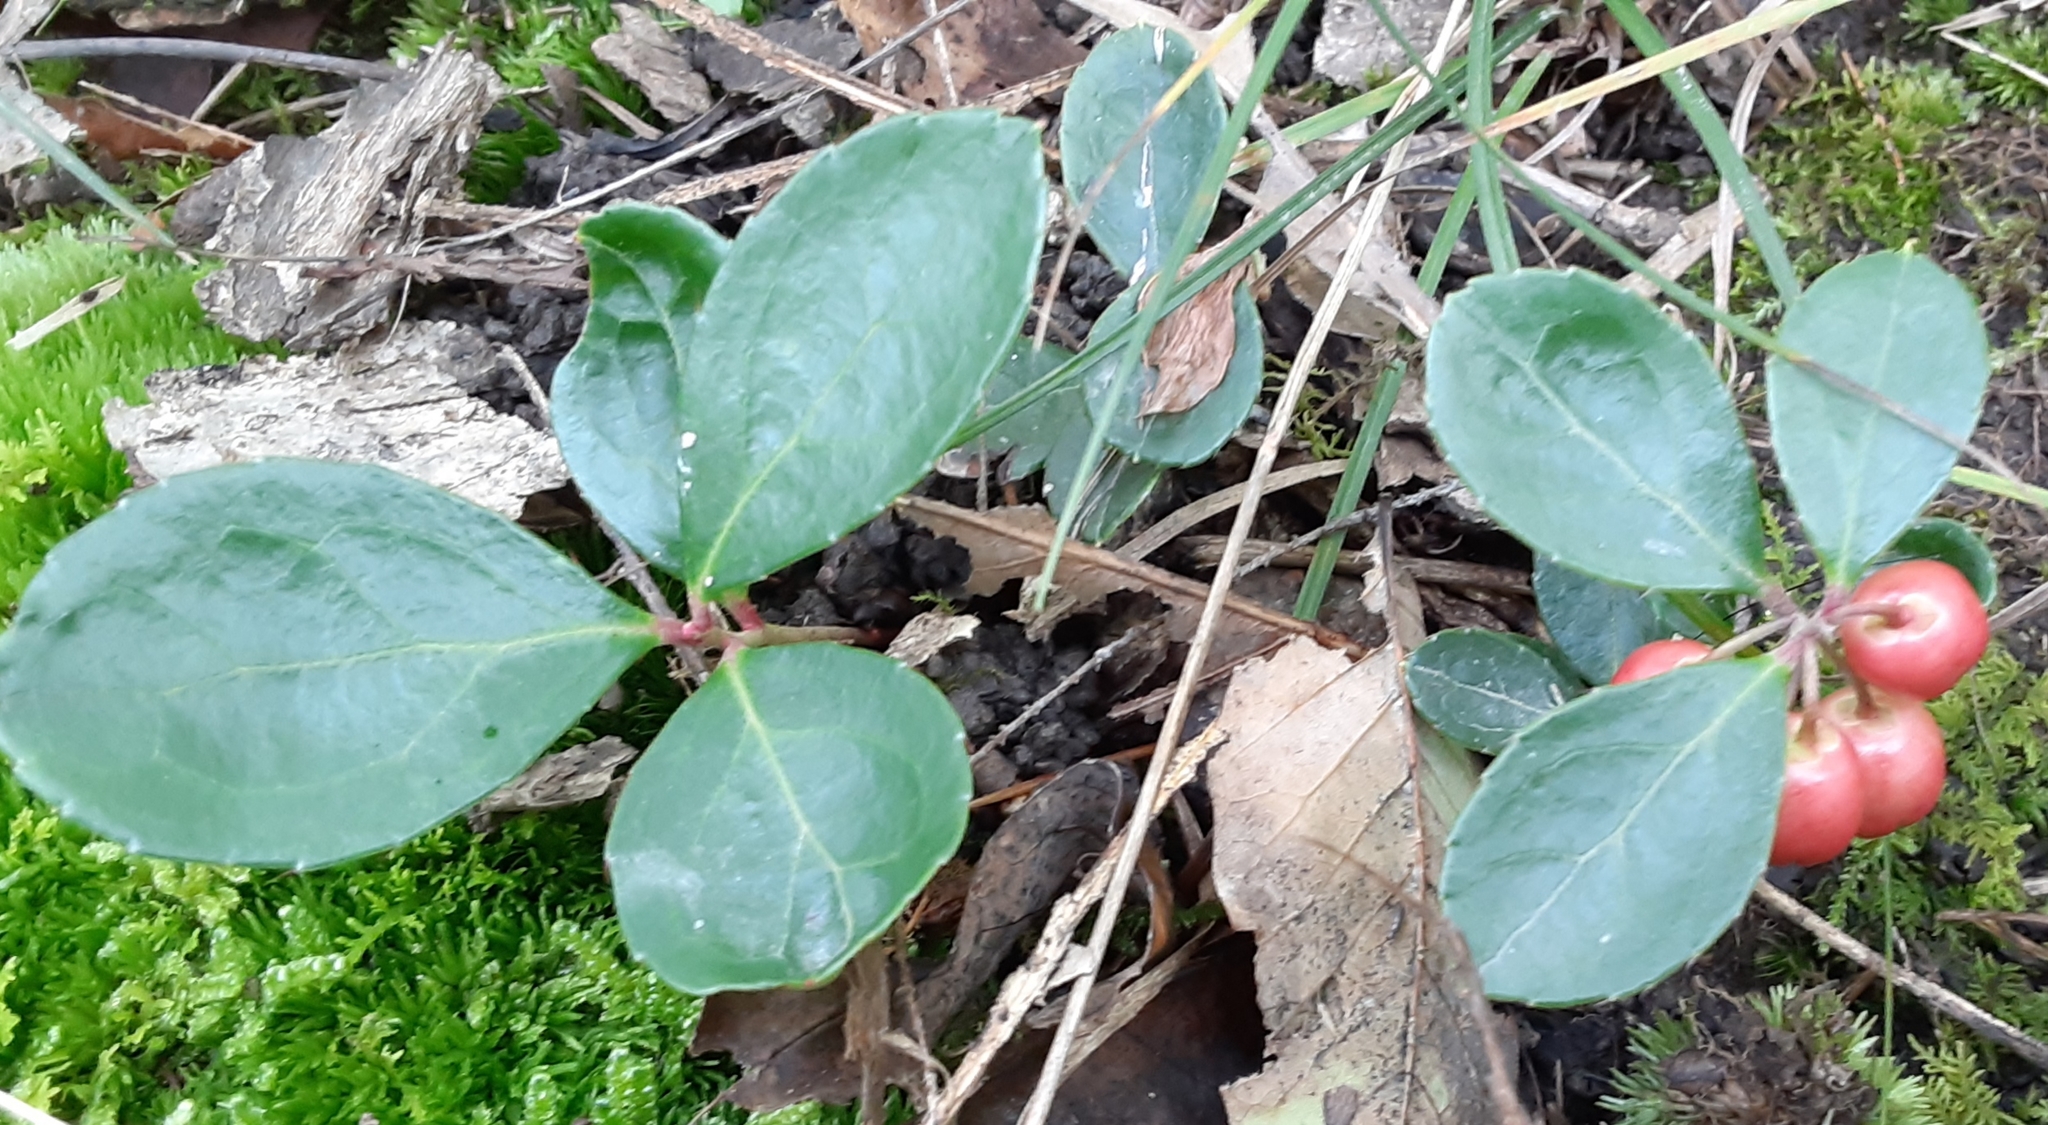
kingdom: Plantae
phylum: Tracheophyta
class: Magnoliopsida
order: Ericales
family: Ericaceae
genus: Gaultheria
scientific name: Gaultheria procumbens
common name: Checkerberry
